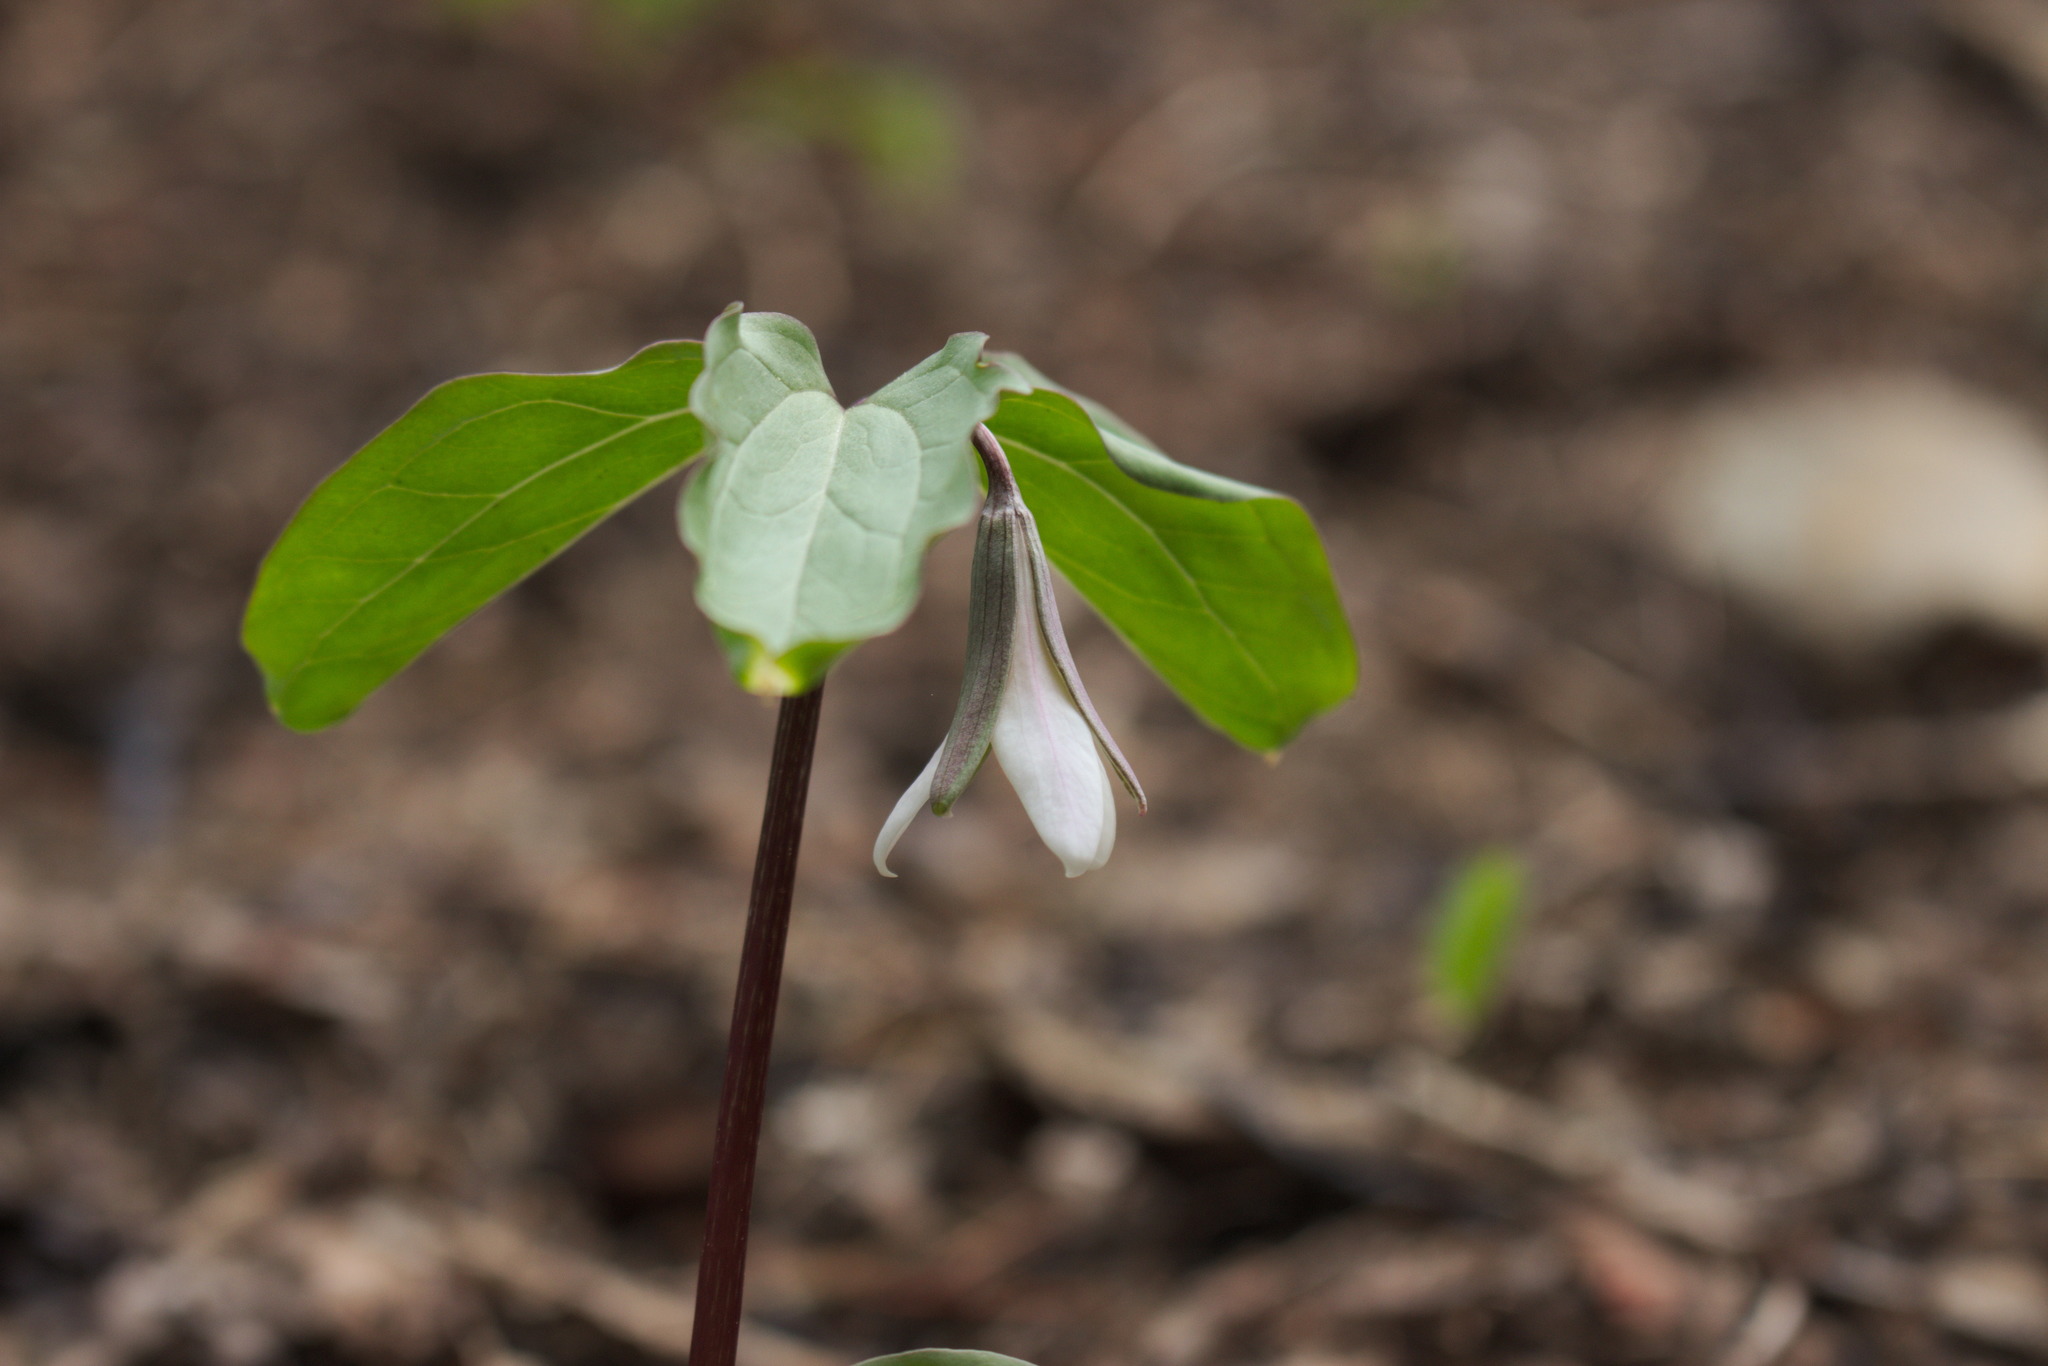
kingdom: Plantae
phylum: Tracheophyta
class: Liliopsida
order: Liliales
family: Melanthiaceae
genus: Trillium
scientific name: Trillium catesbaei
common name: Bashful trillium
